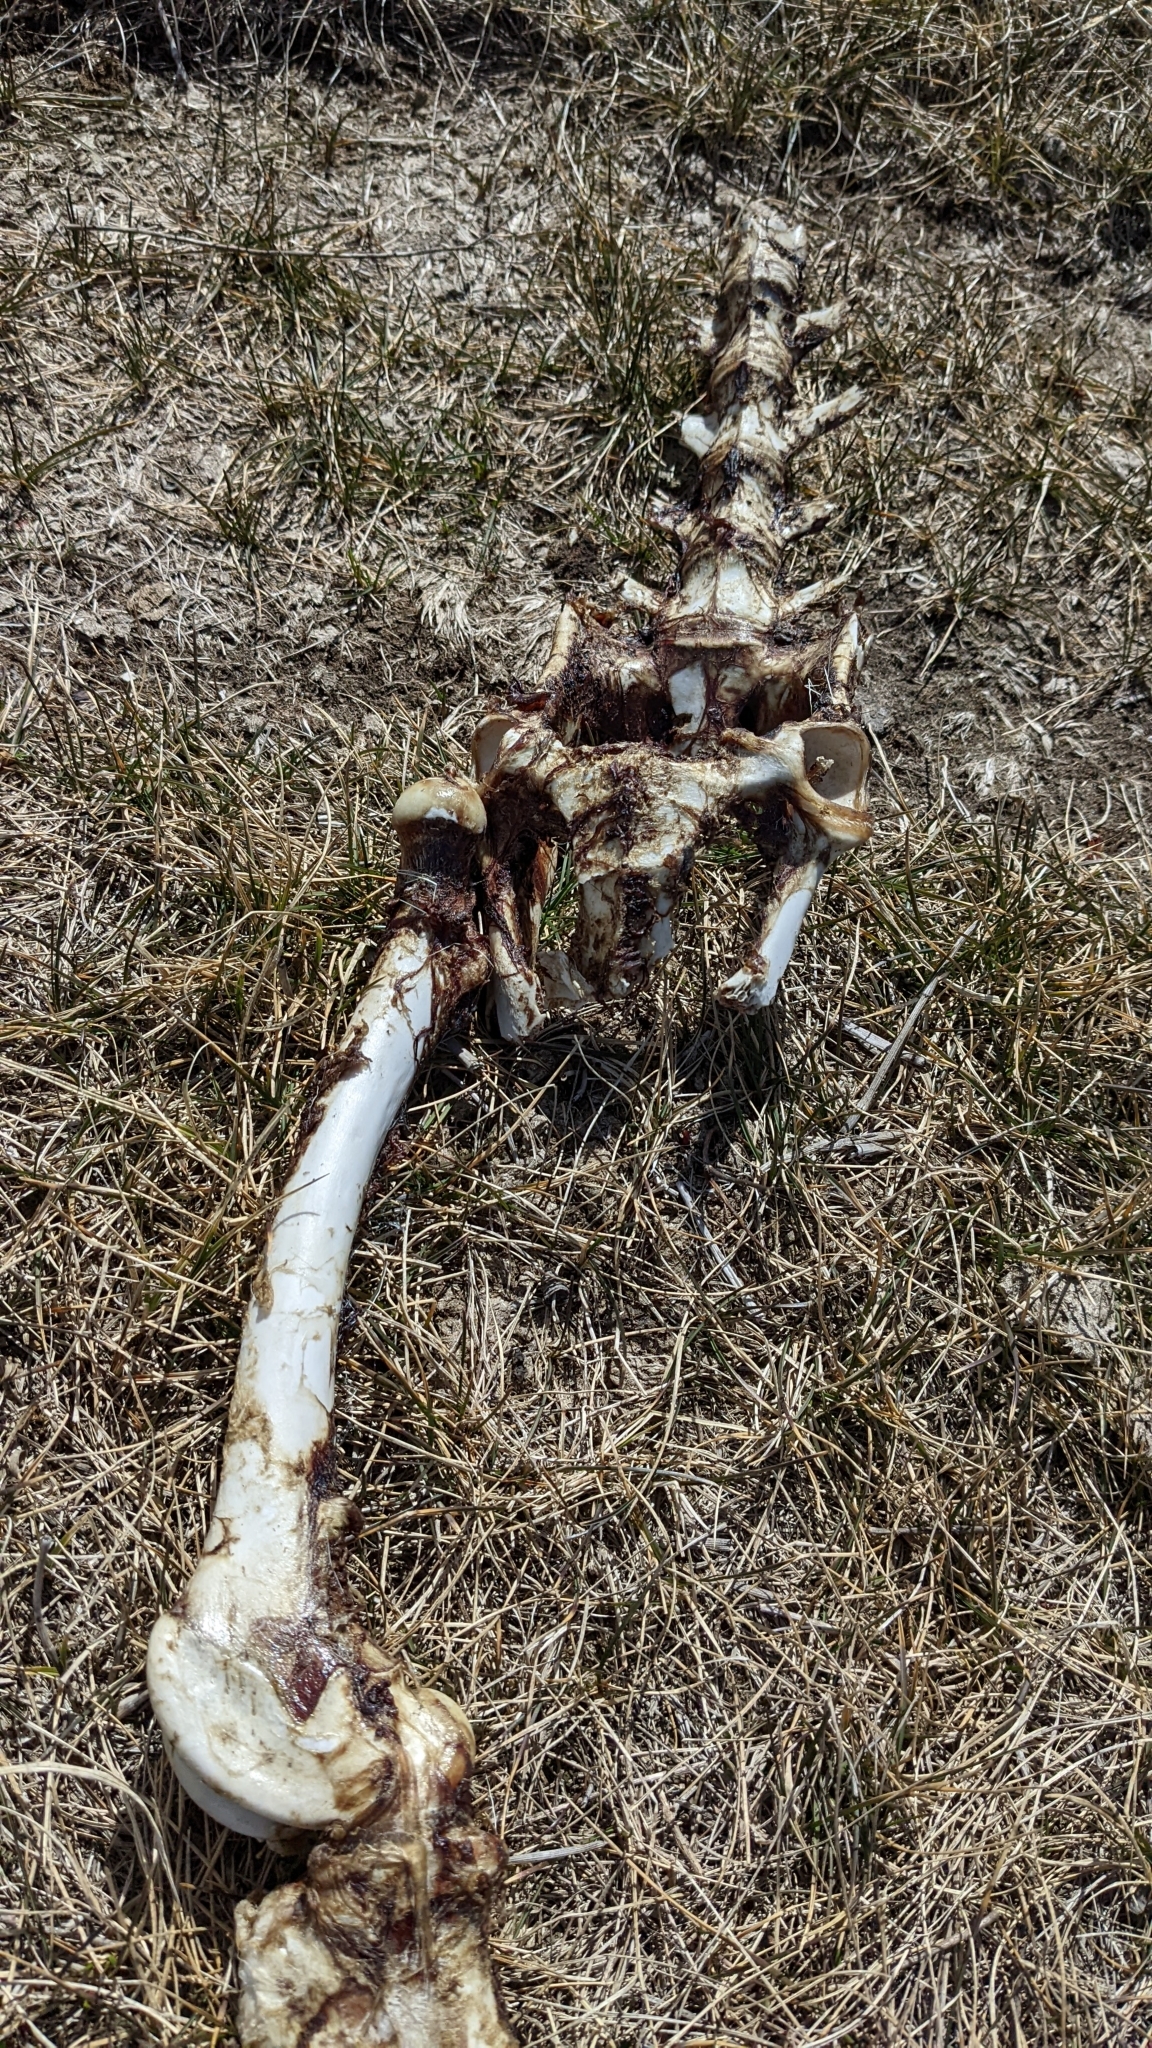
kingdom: Animalia
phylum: Chordata
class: Mammalia
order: Artiodactyla
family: Cervidae
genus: Odocoileus
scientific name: Odocoileus virginianus
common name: White-tailed deer
